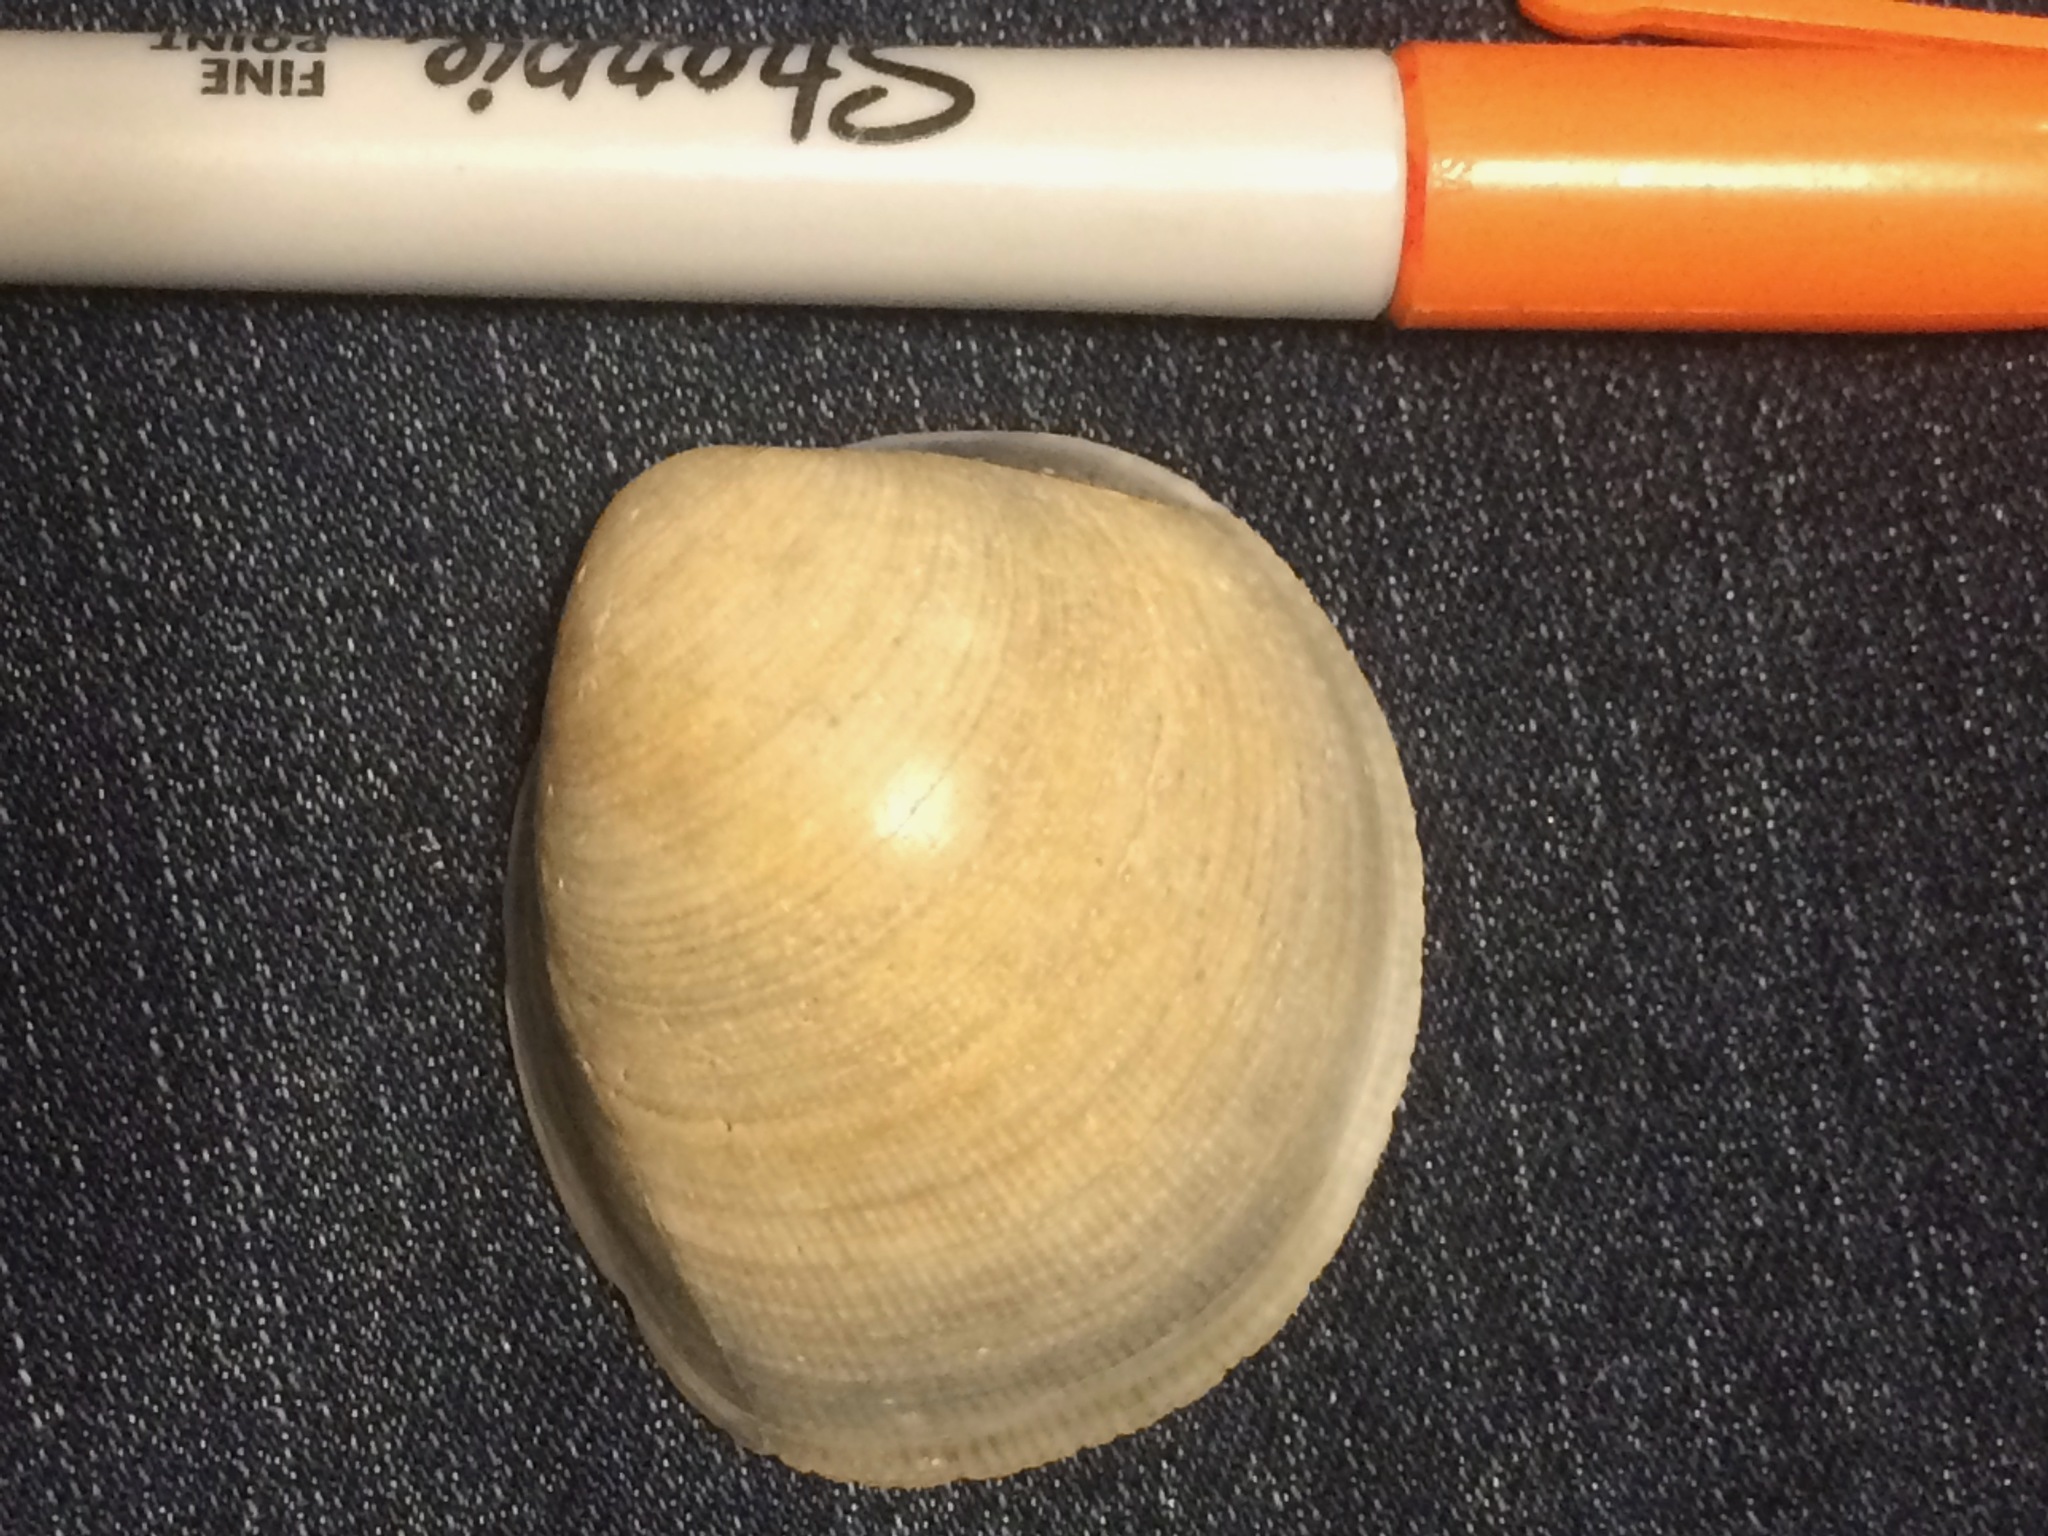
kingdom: Animalia
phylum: Mollusca
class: Bivalvia
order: Cardiida
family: Cardiidae
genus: Laevicardium
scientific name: Laevicardium serratum
